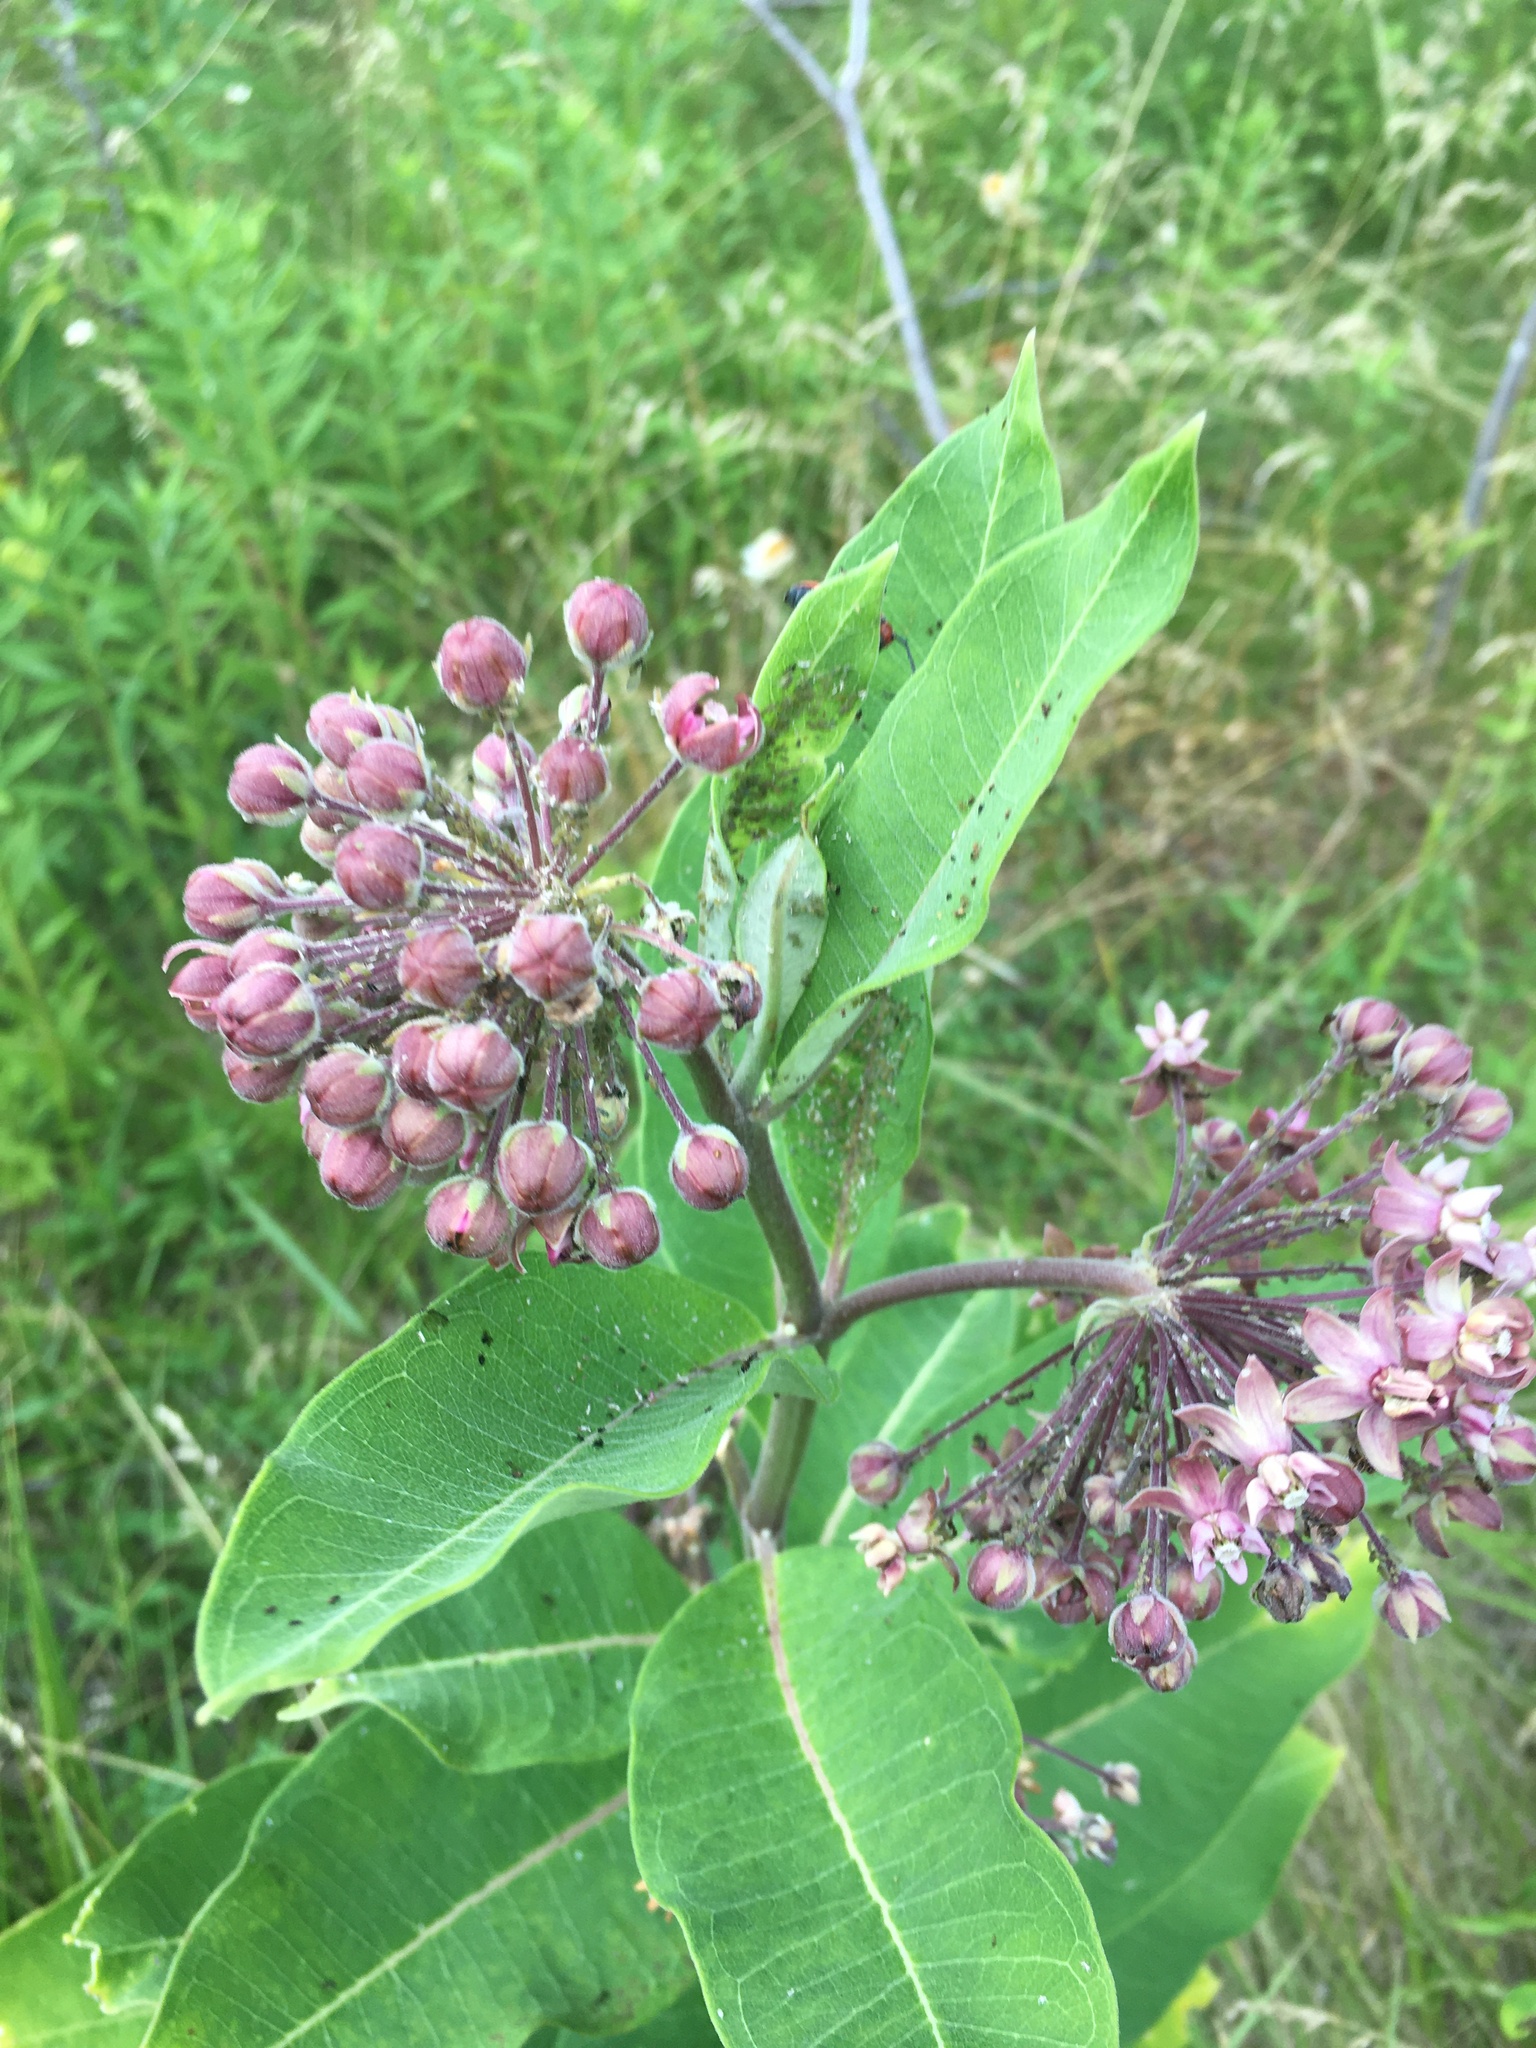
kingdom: Plantae
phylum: Tracheophyta
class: Magnoliopsida
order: Gentianales
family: Apocynaceae
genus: Asclepias
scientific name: Asclepias syriaca
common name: Common milkweed
